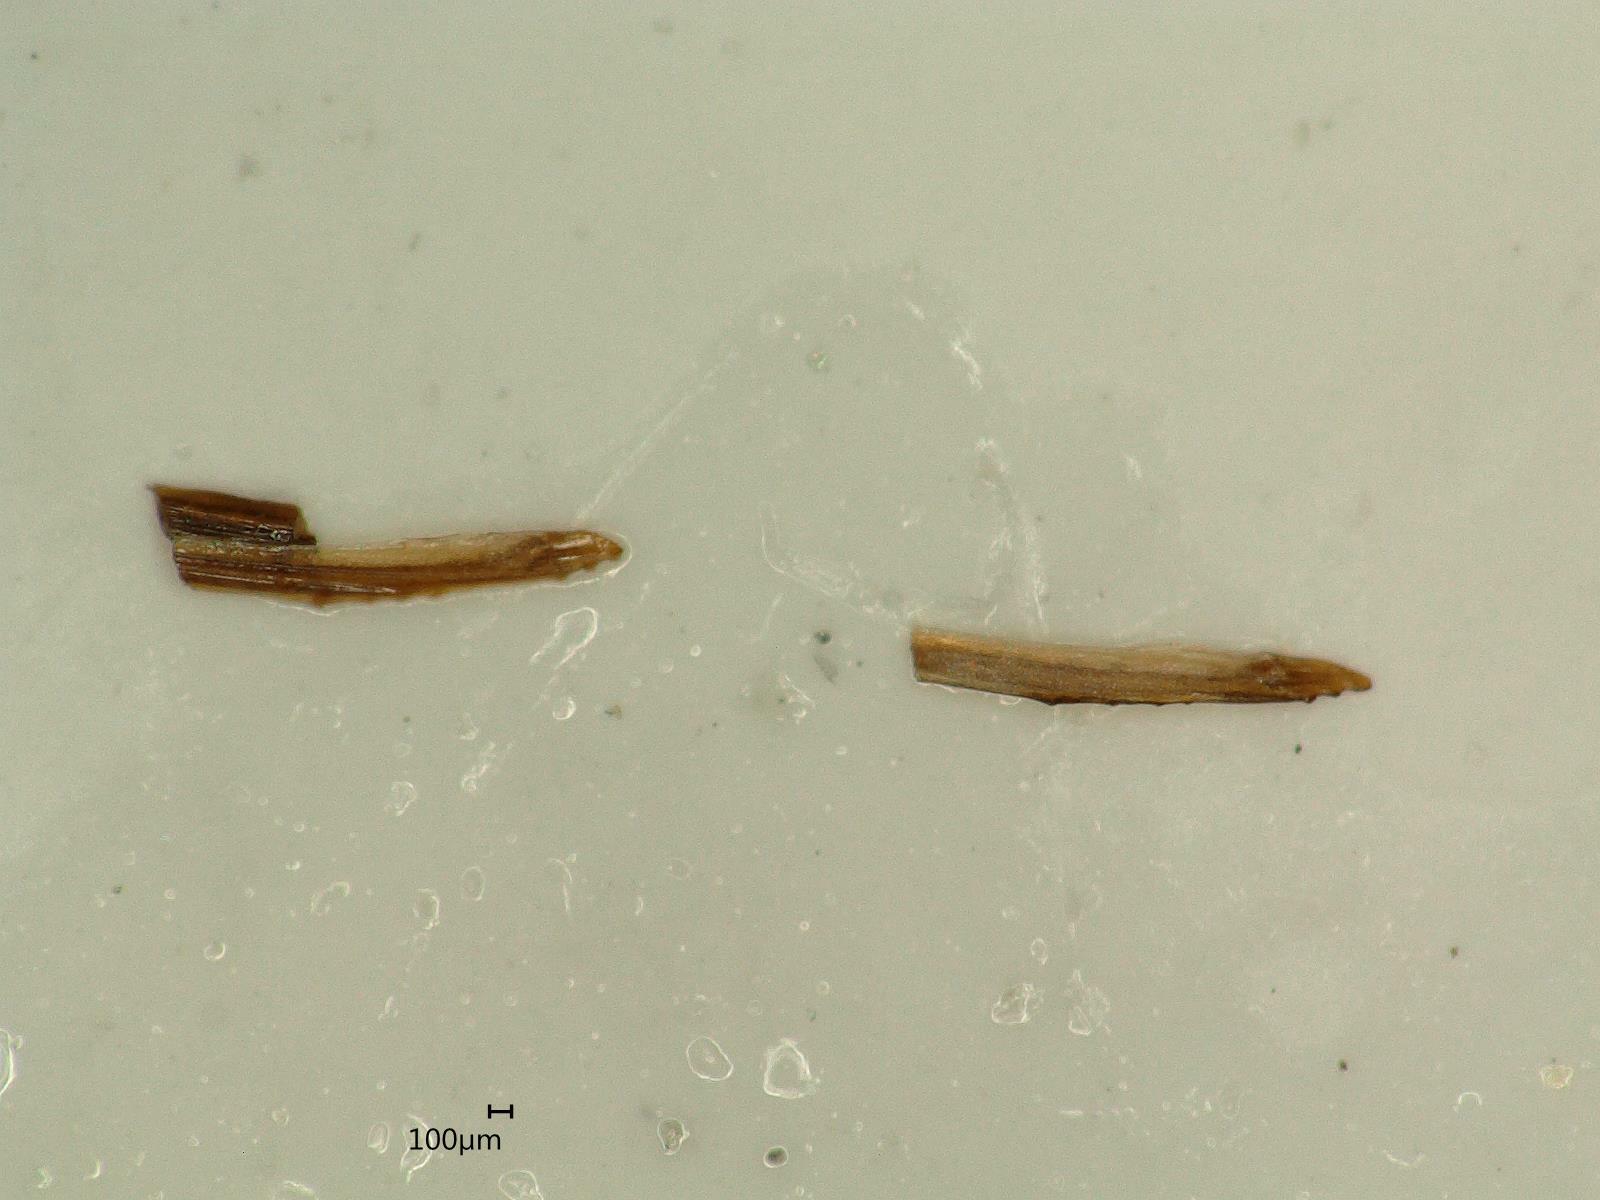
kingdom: Animalia
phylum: Arthropoda
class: Insecta
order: Hemiptera
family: Cicadellidae
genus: Macropsis
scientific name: Macropsis ocellata
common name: Leafhopper
